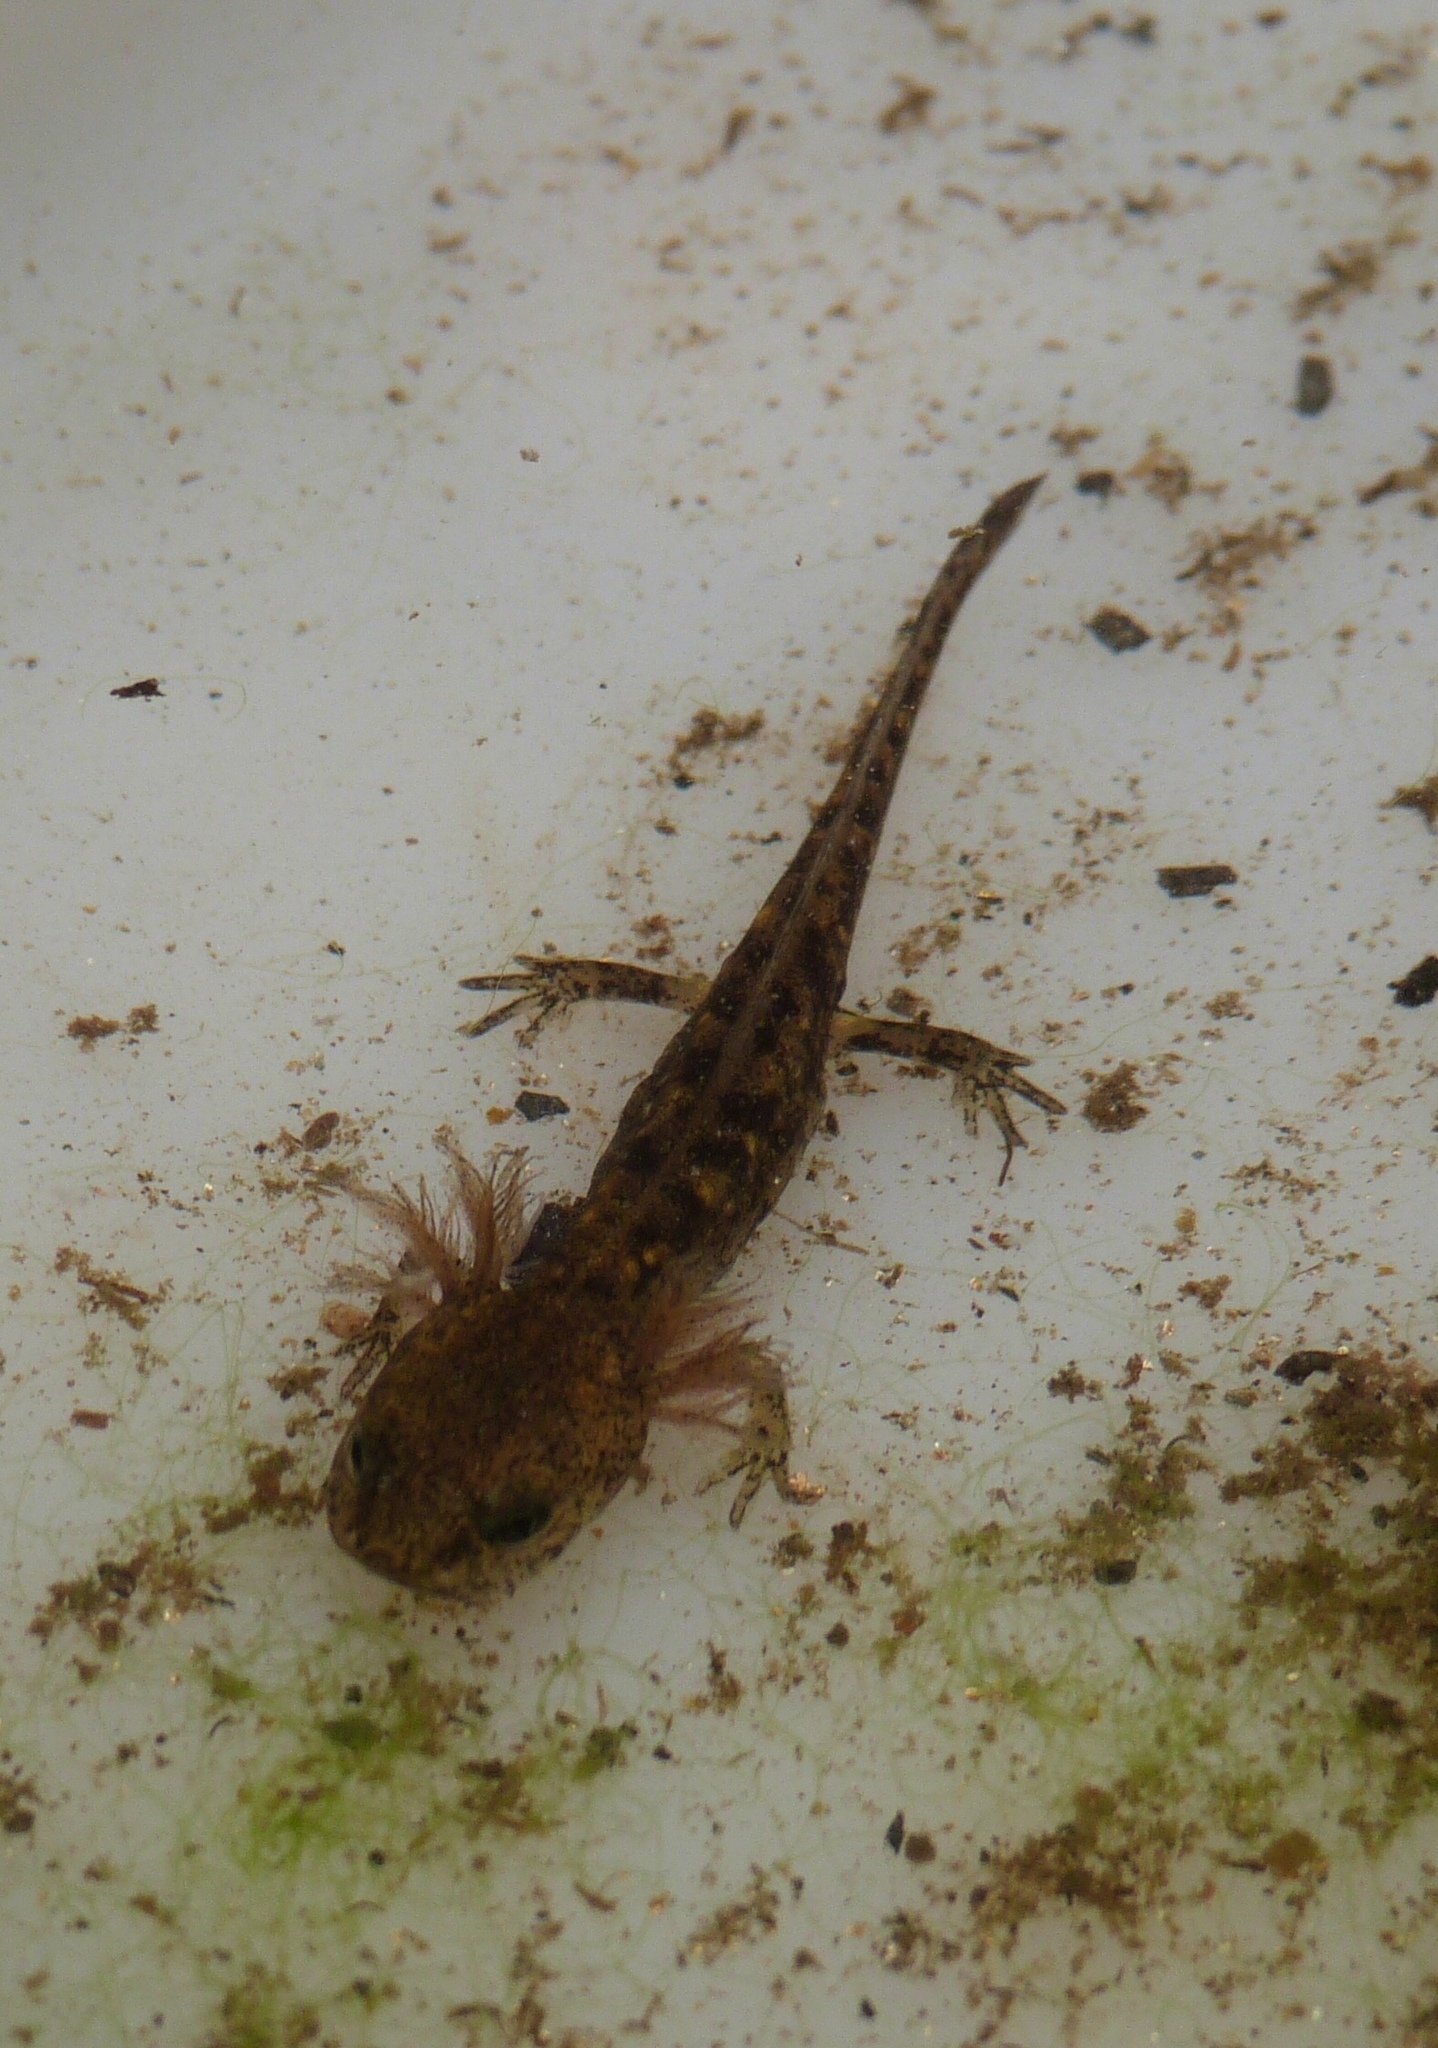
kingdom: Animalia
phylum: Chordata
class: Amphibia
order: Caudata
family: Salamandridae
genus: Salamandra
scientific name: Salamandra salamandra
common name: Fire salamander
